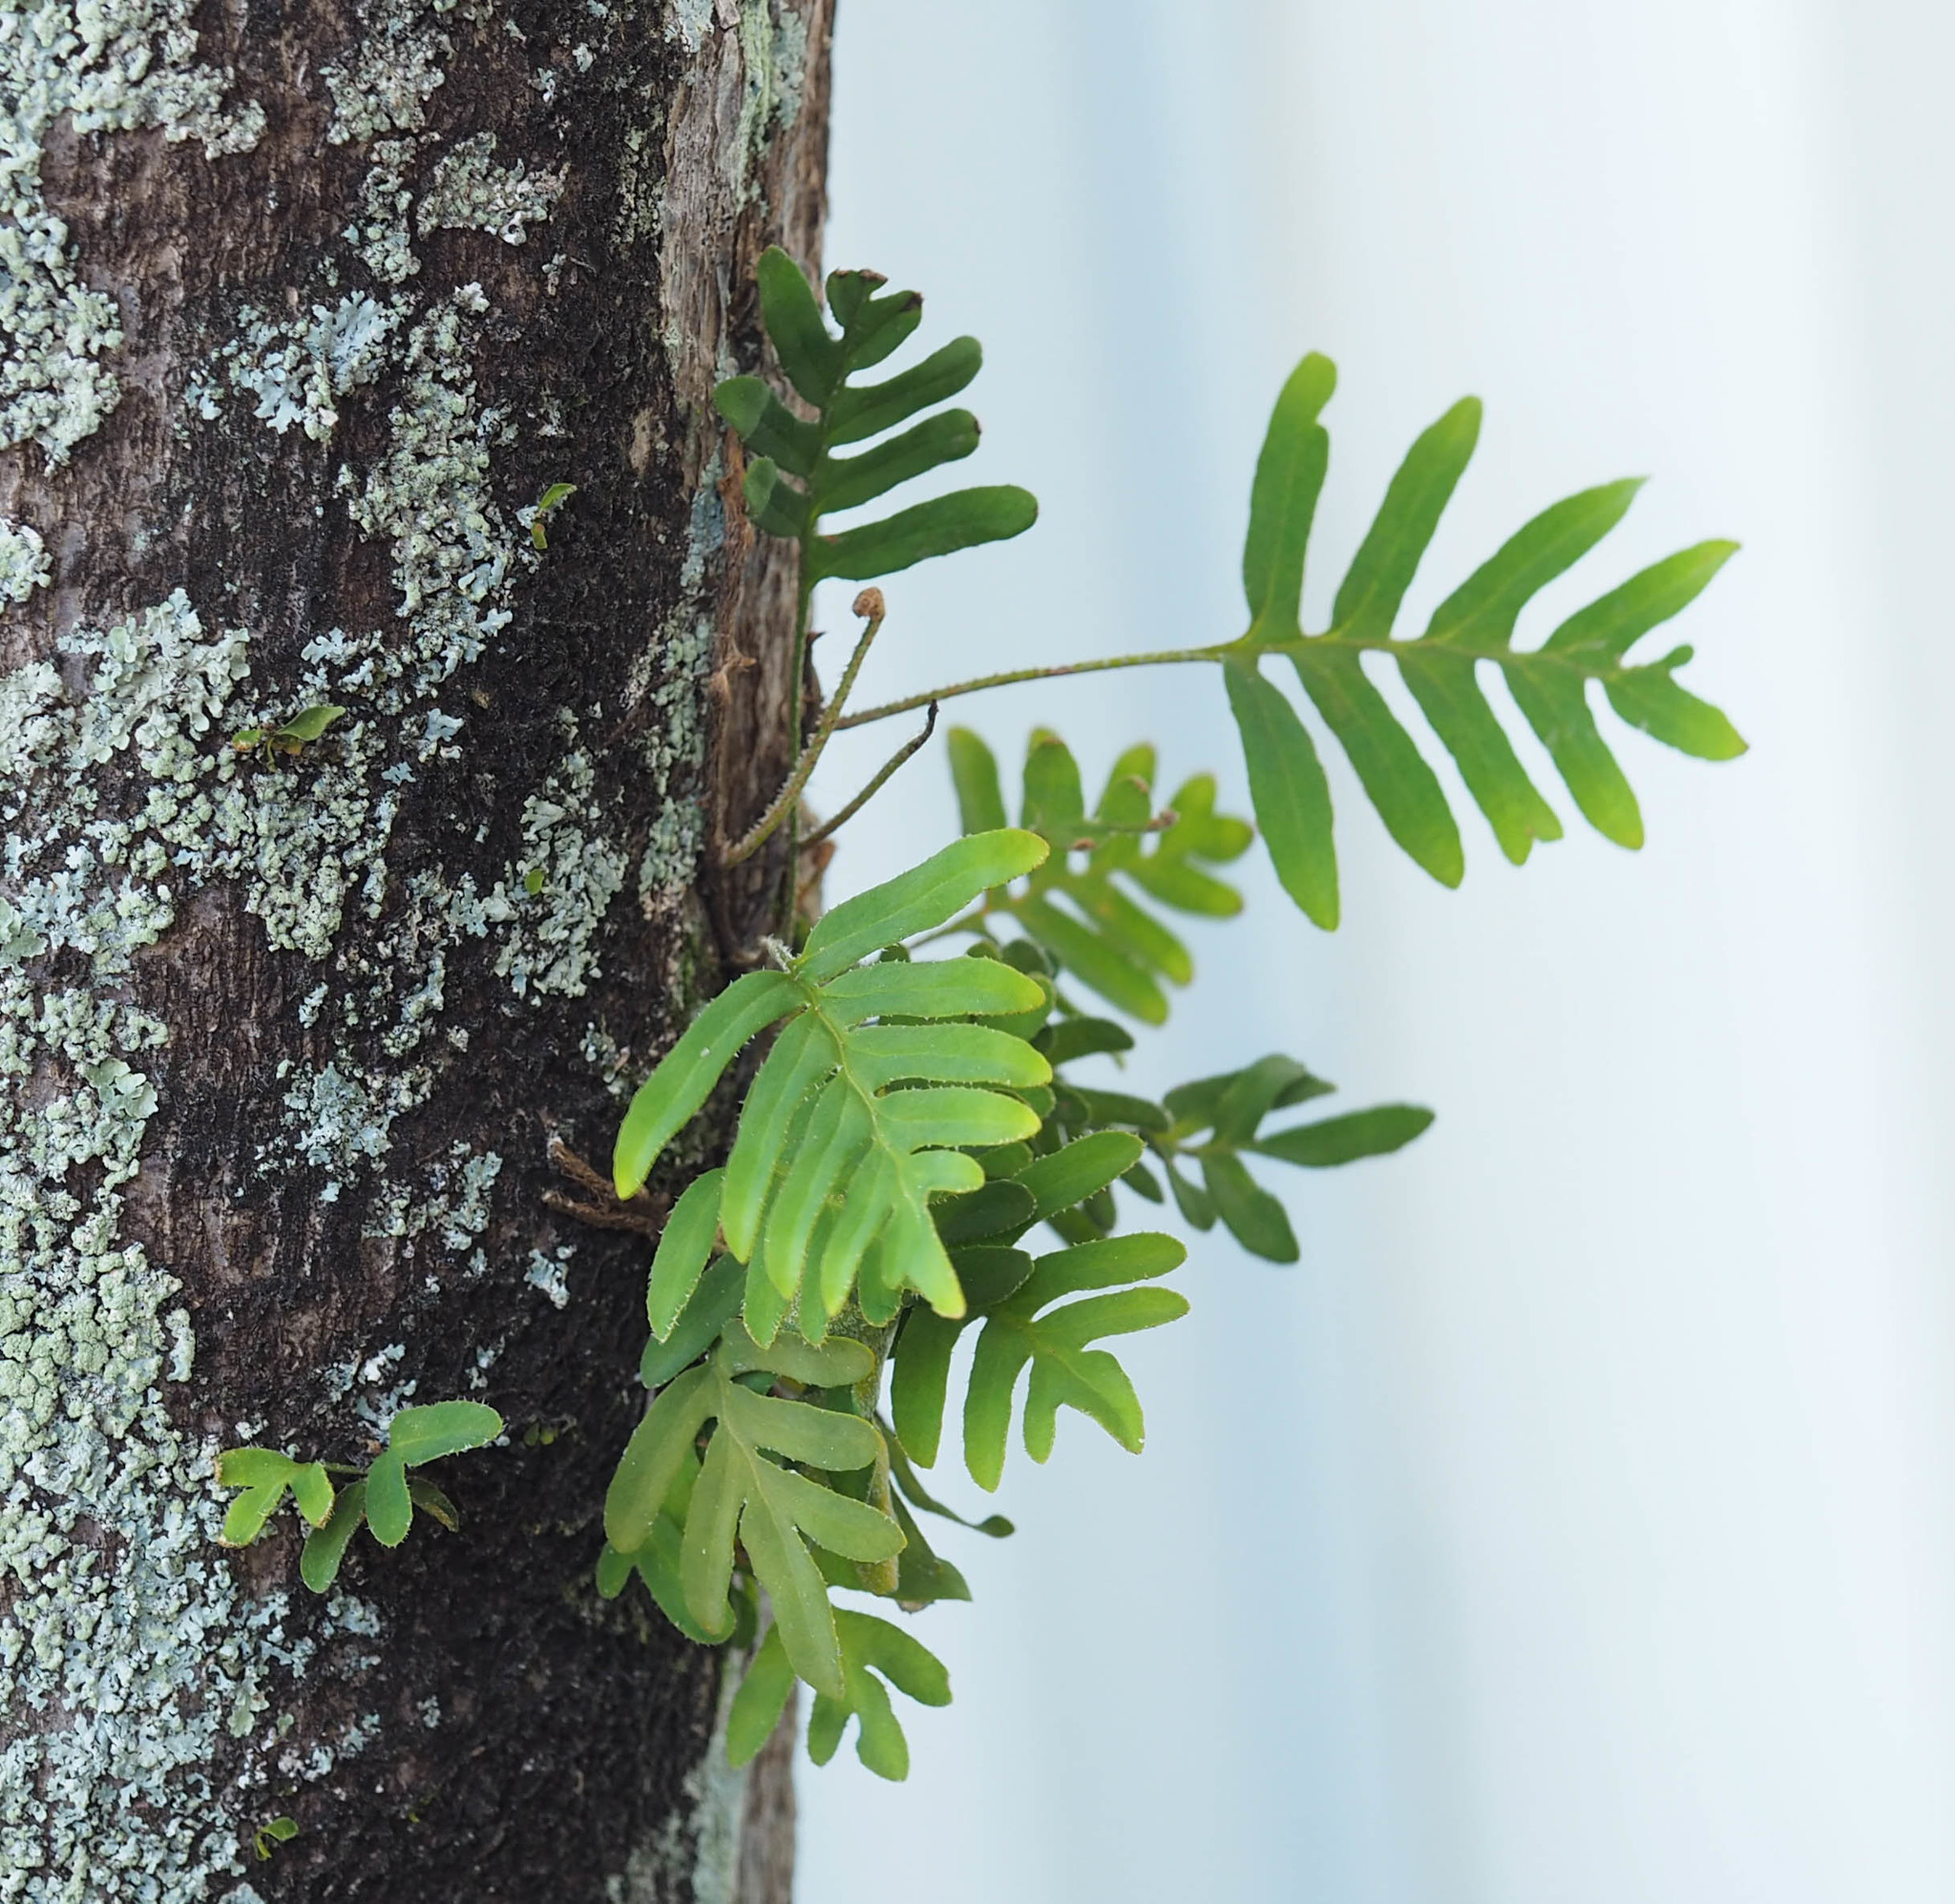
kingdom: Plantae
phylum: Tracheophyta
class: Polypodiopsida
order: Polypodiales
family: Polypodiaceae
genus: Pleopeltis
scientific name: Pleopeltis michauxiana
